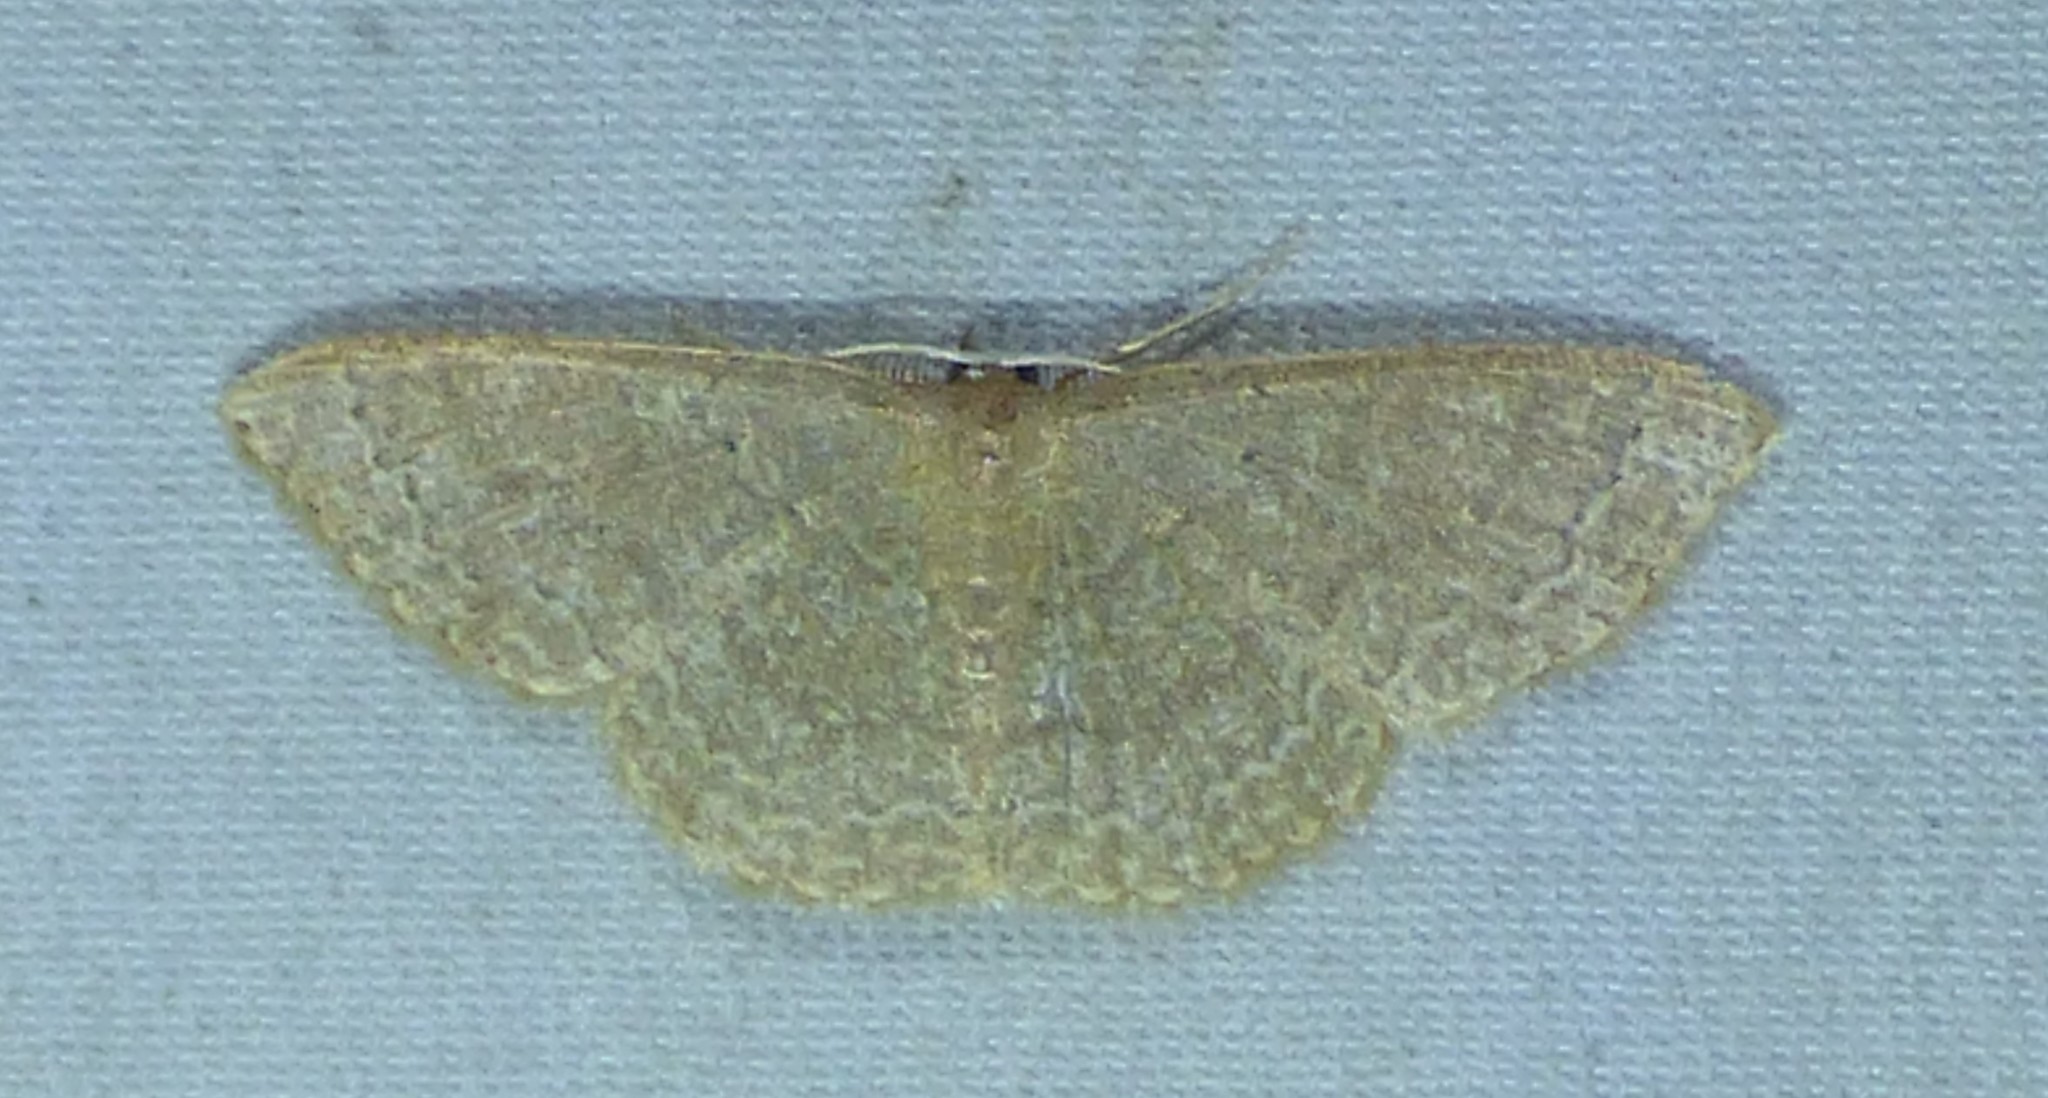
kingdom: Animalia
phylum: Arthropoda
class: Insecta
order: Lepidoptera
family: Geometridae
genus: Pleuroprucha
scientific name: Pleuroprucha insulsaria
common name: Common tan wave
